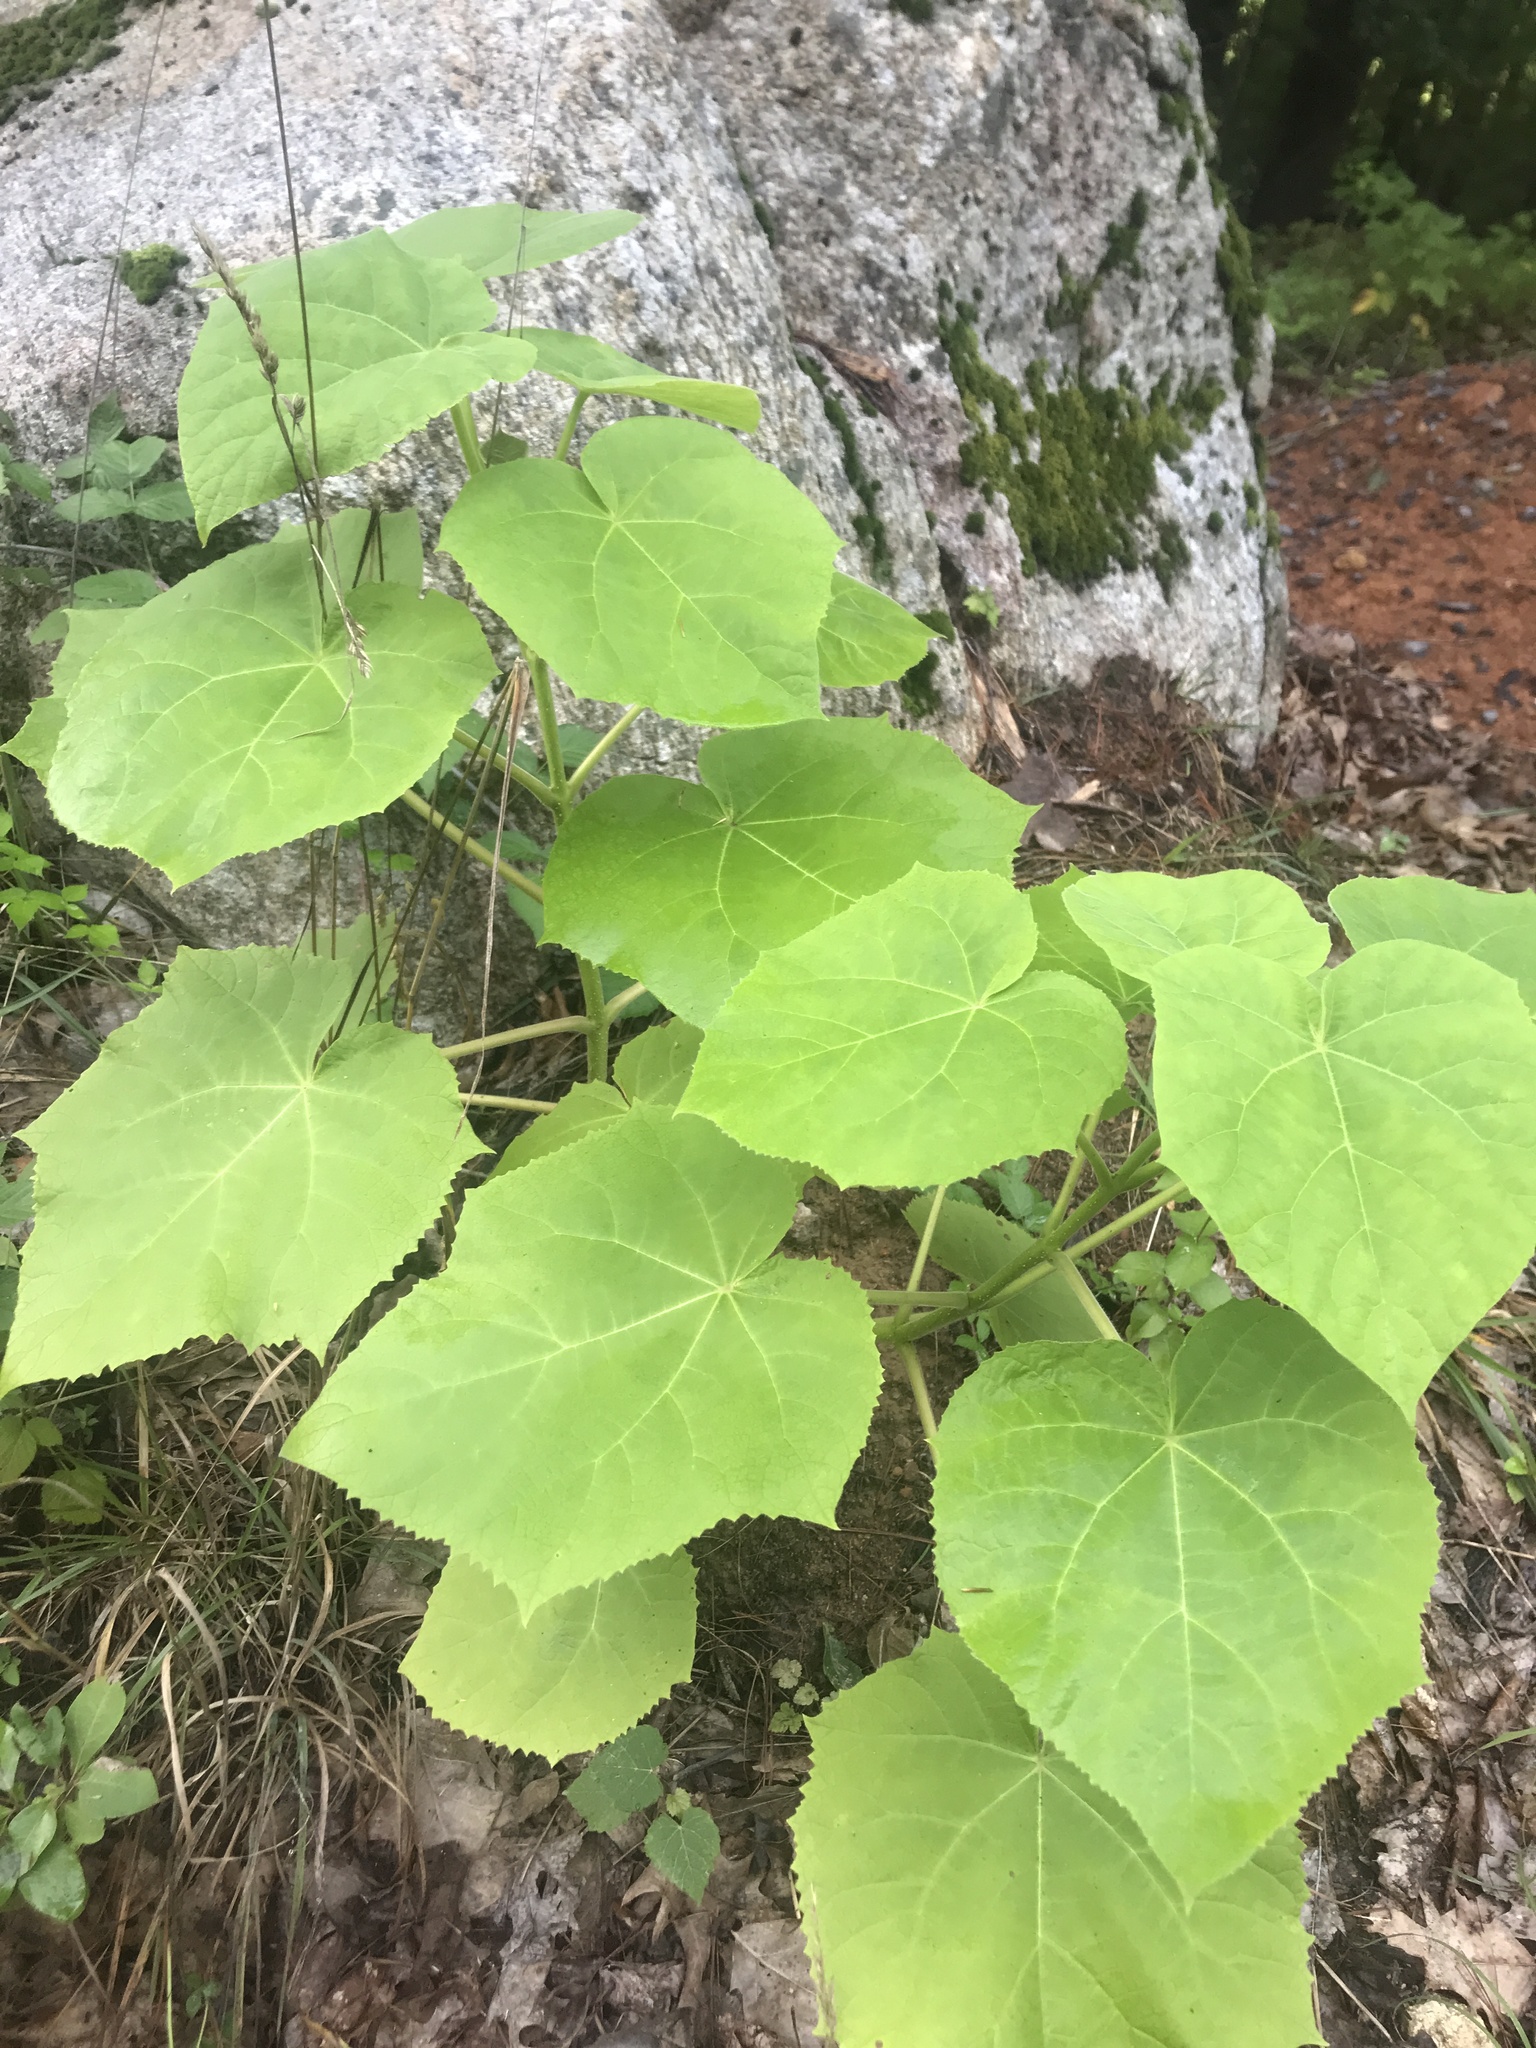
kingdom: Plantae
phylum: Tracheophyta
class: Magnoliopsida
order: Lamiales
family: Paulowniaceae
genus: Paulownia
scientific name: Paulownia tomentosa
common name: Foxglove-tree
